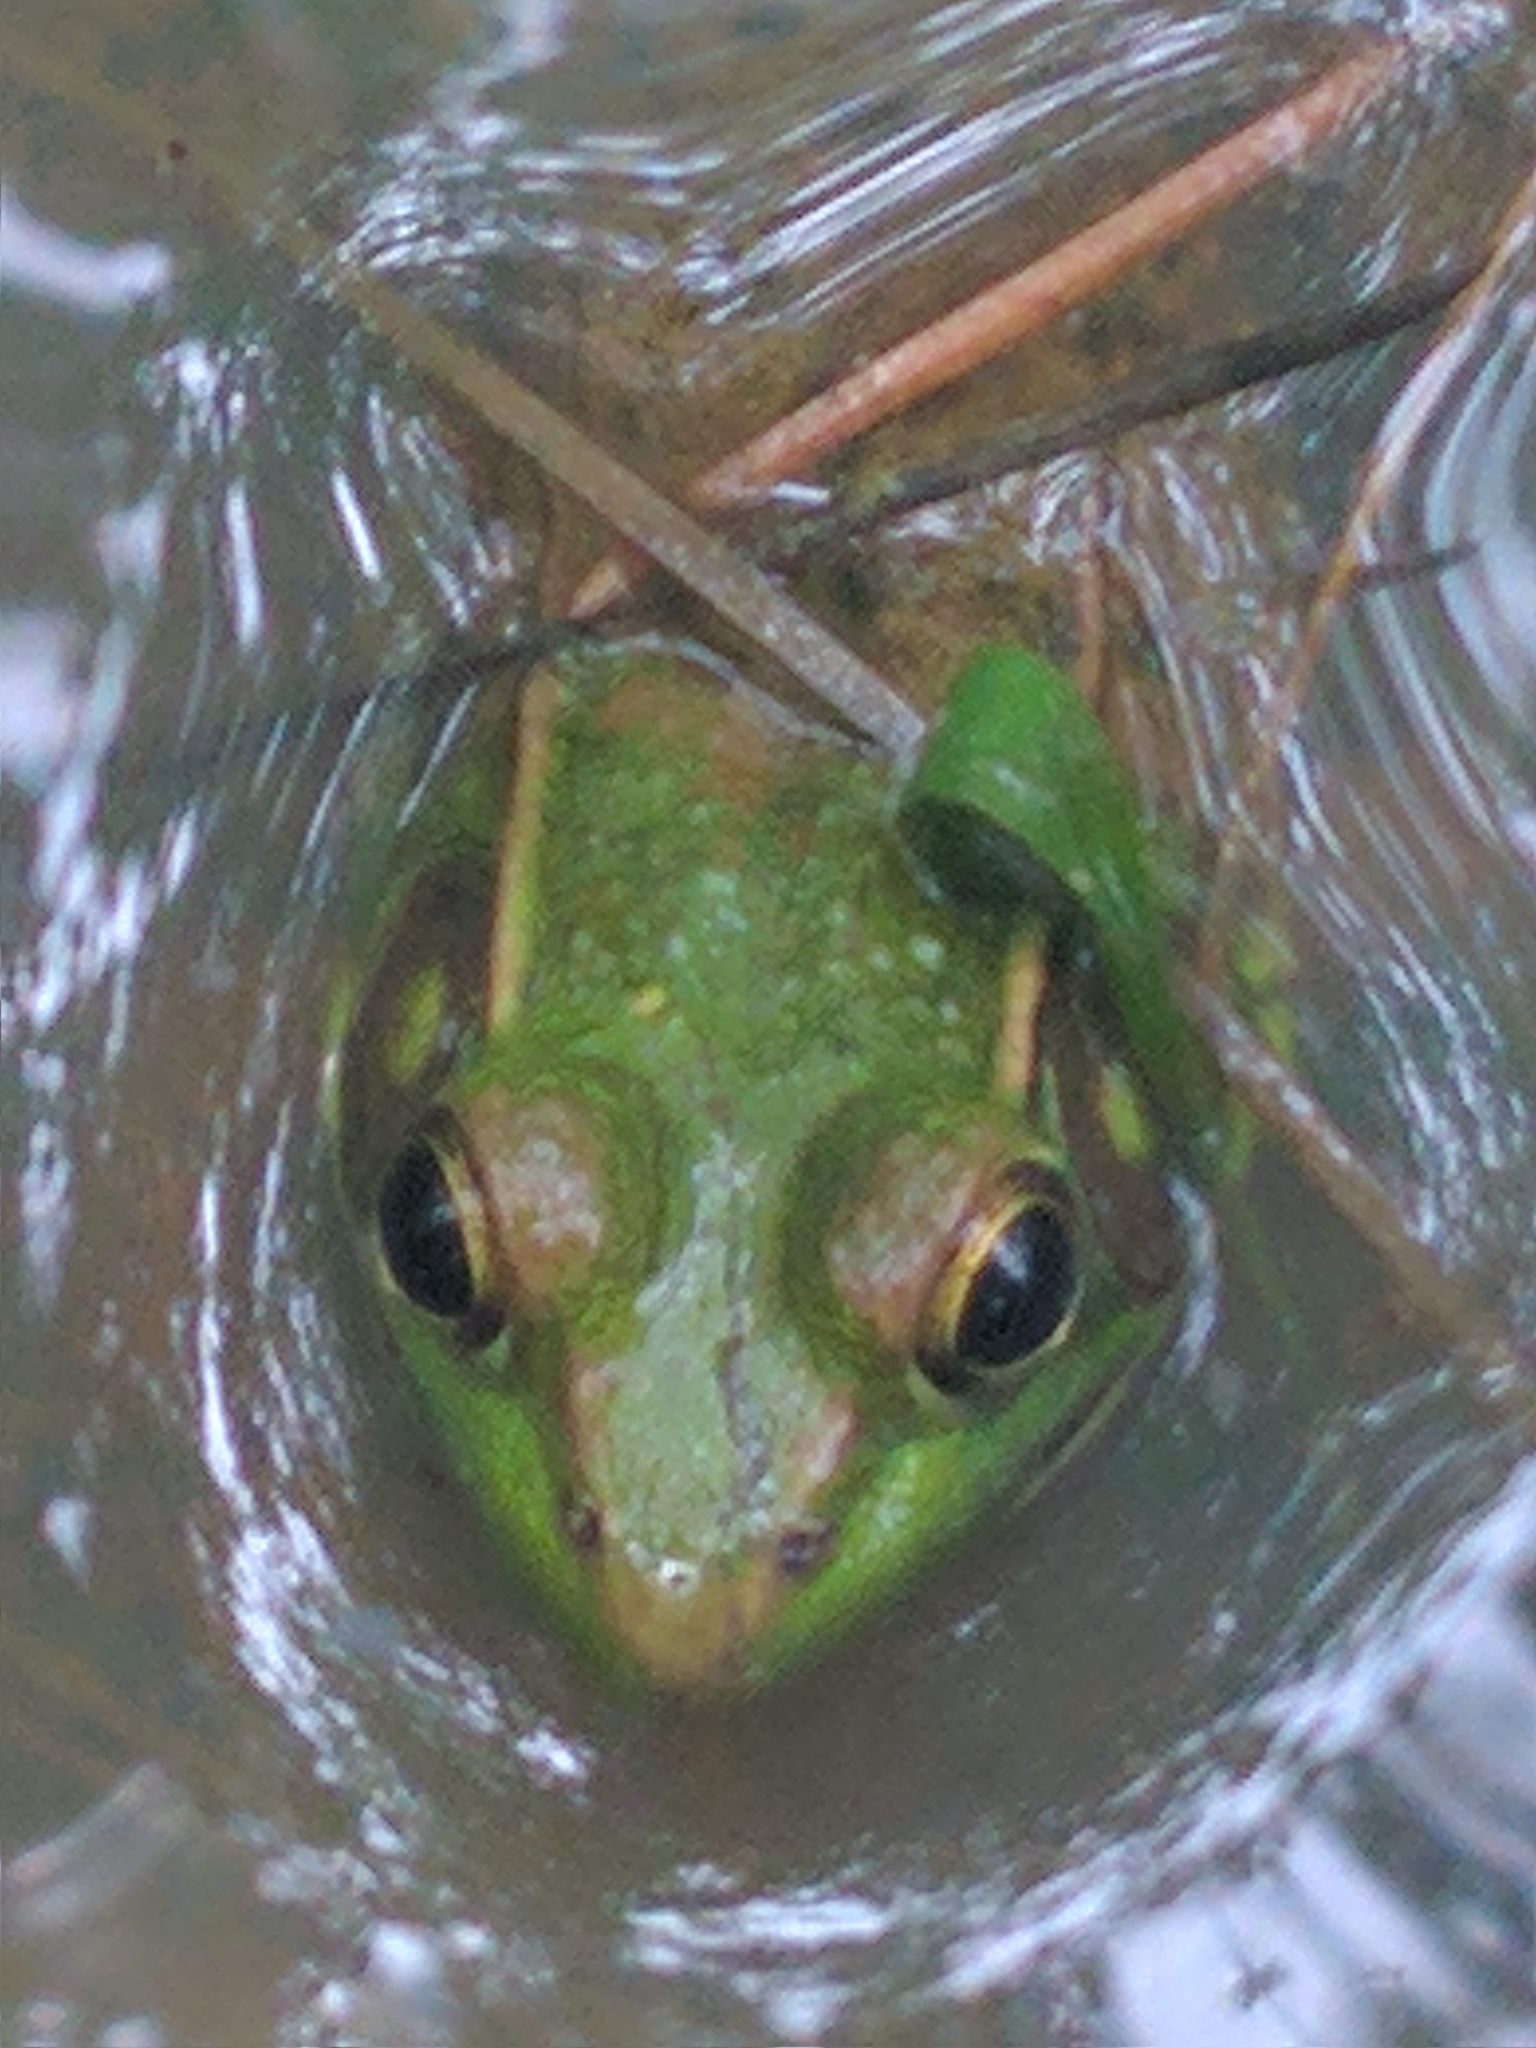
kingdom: Animalia
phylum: Chordata
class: Amphibia
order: Anura
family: Ranidae
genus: Lithobates
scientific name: Lithobates clamitans
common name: Green frog
